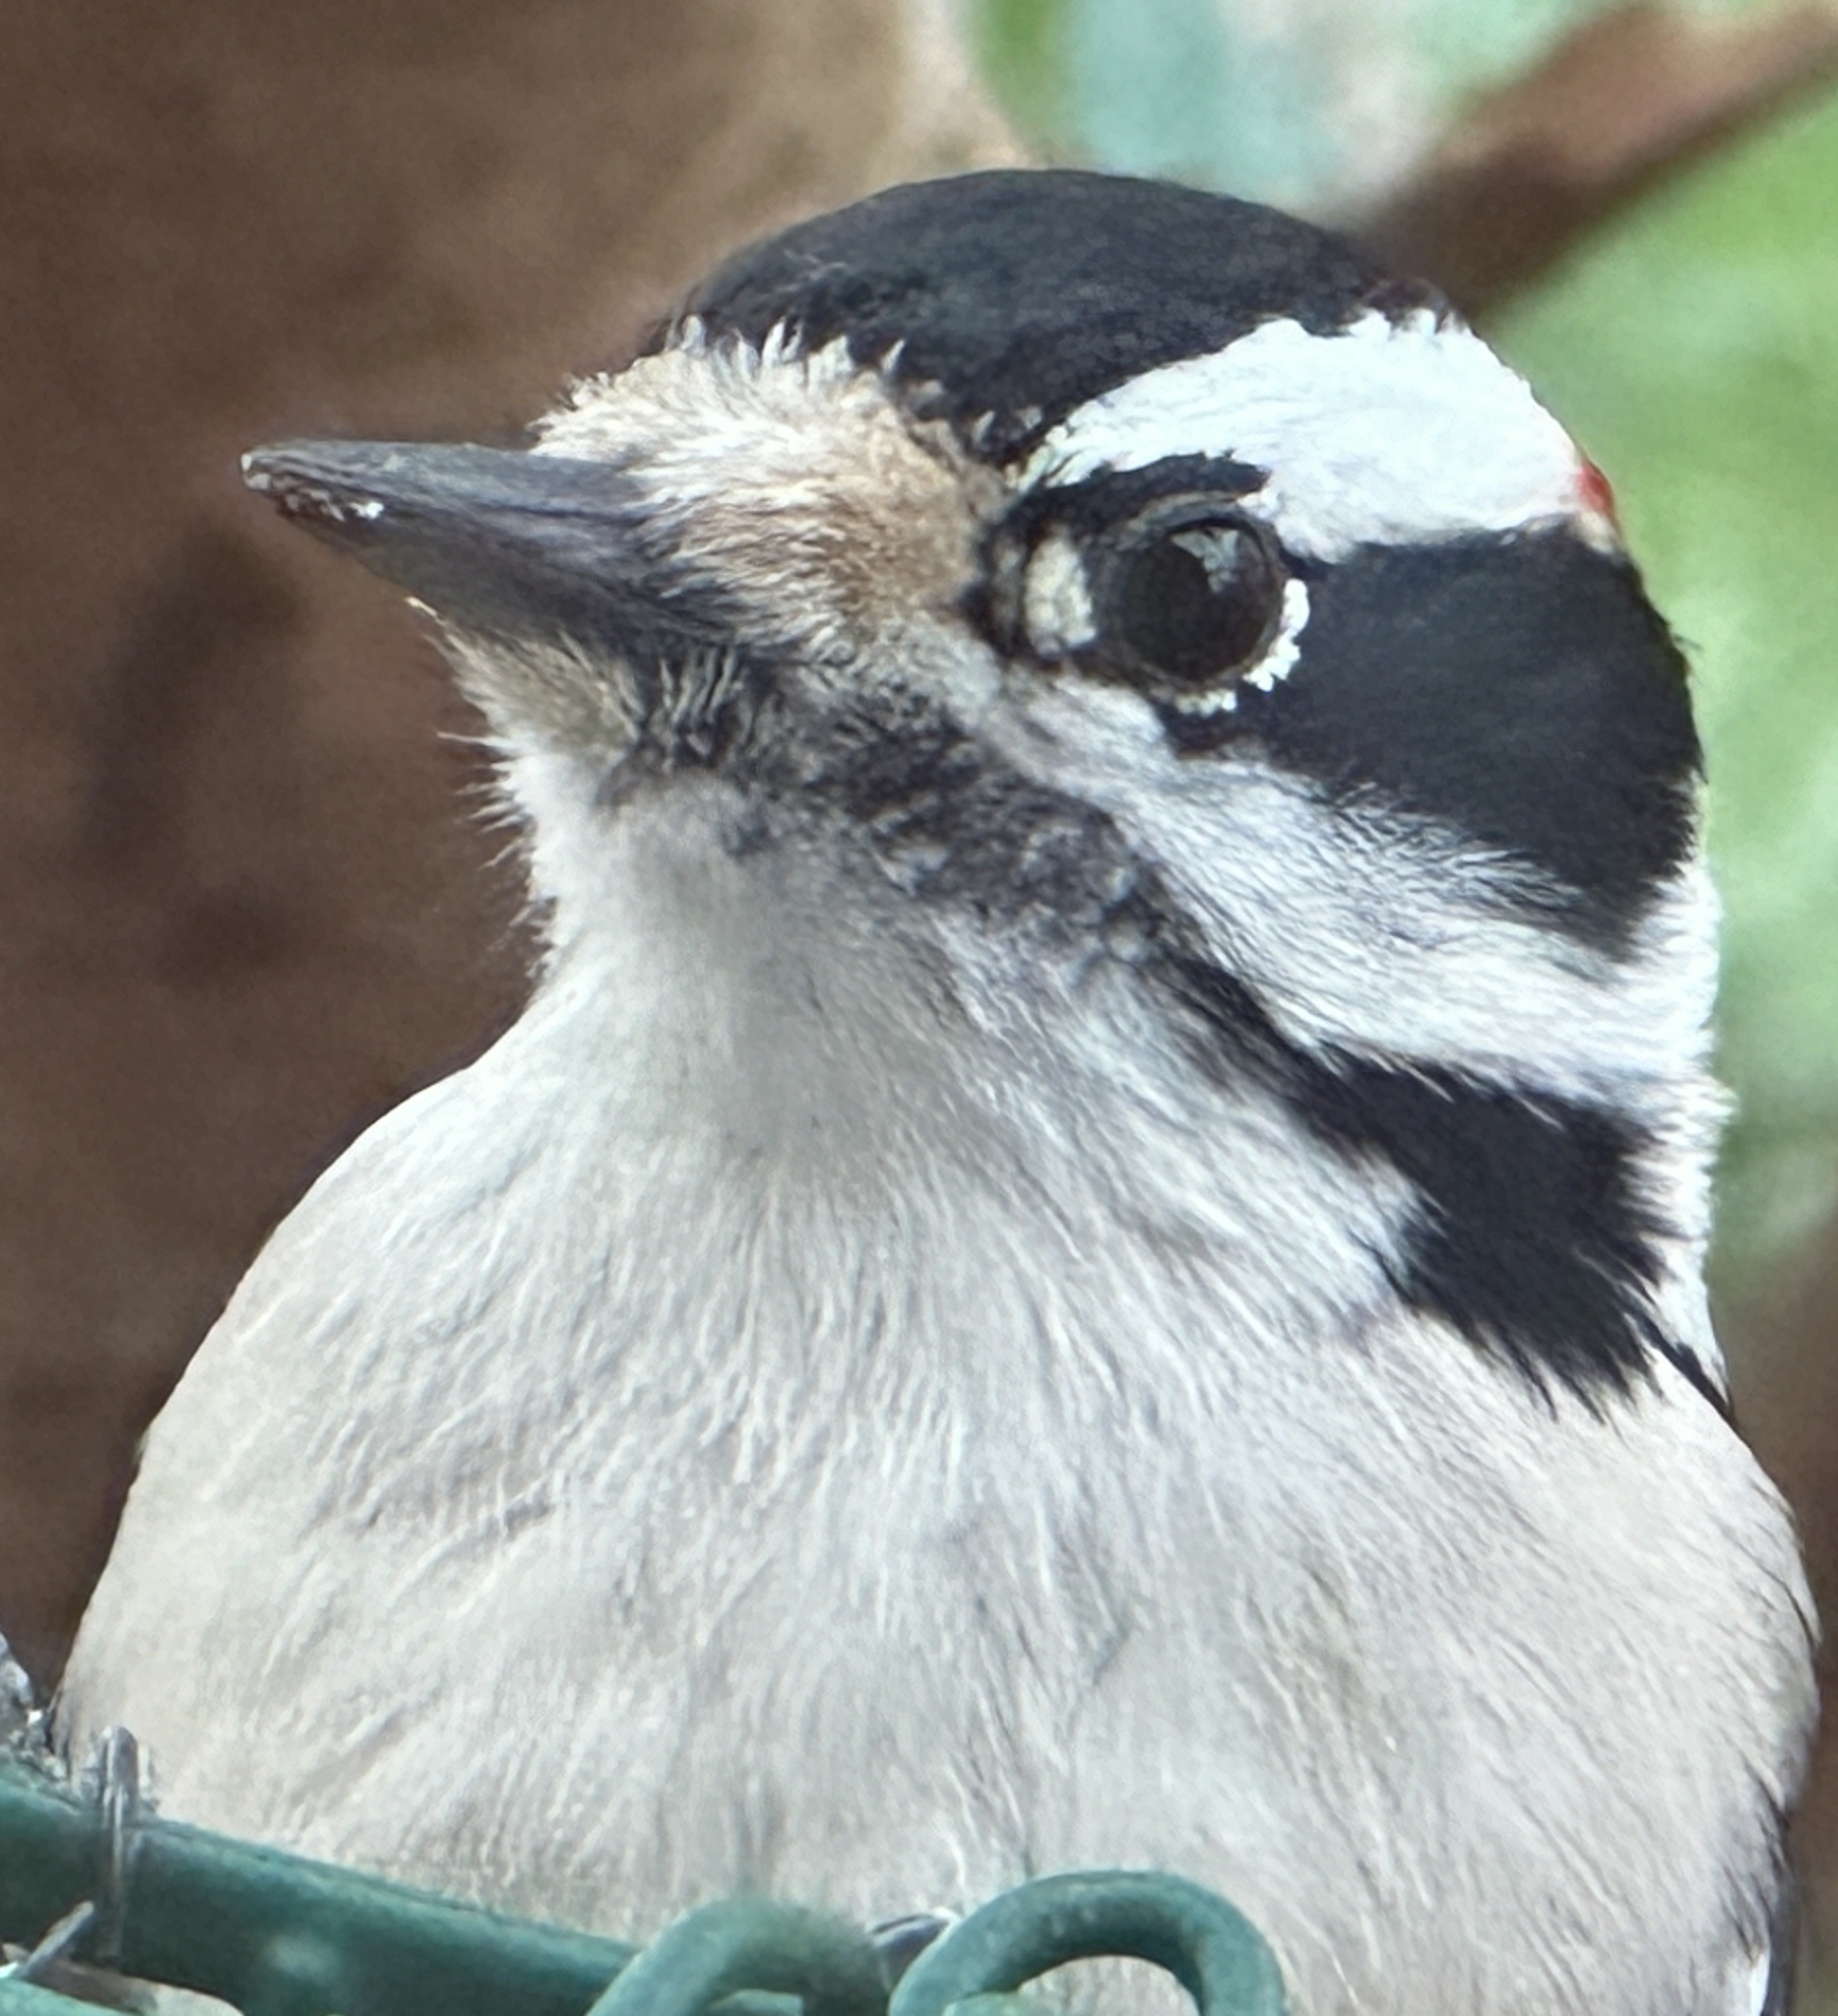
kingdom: Animalia
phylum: Chordata
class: Aves
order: Piciformes
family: Picidae
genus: Dryobates
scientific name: Dryobates pubescens
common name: Downy woodpecker
